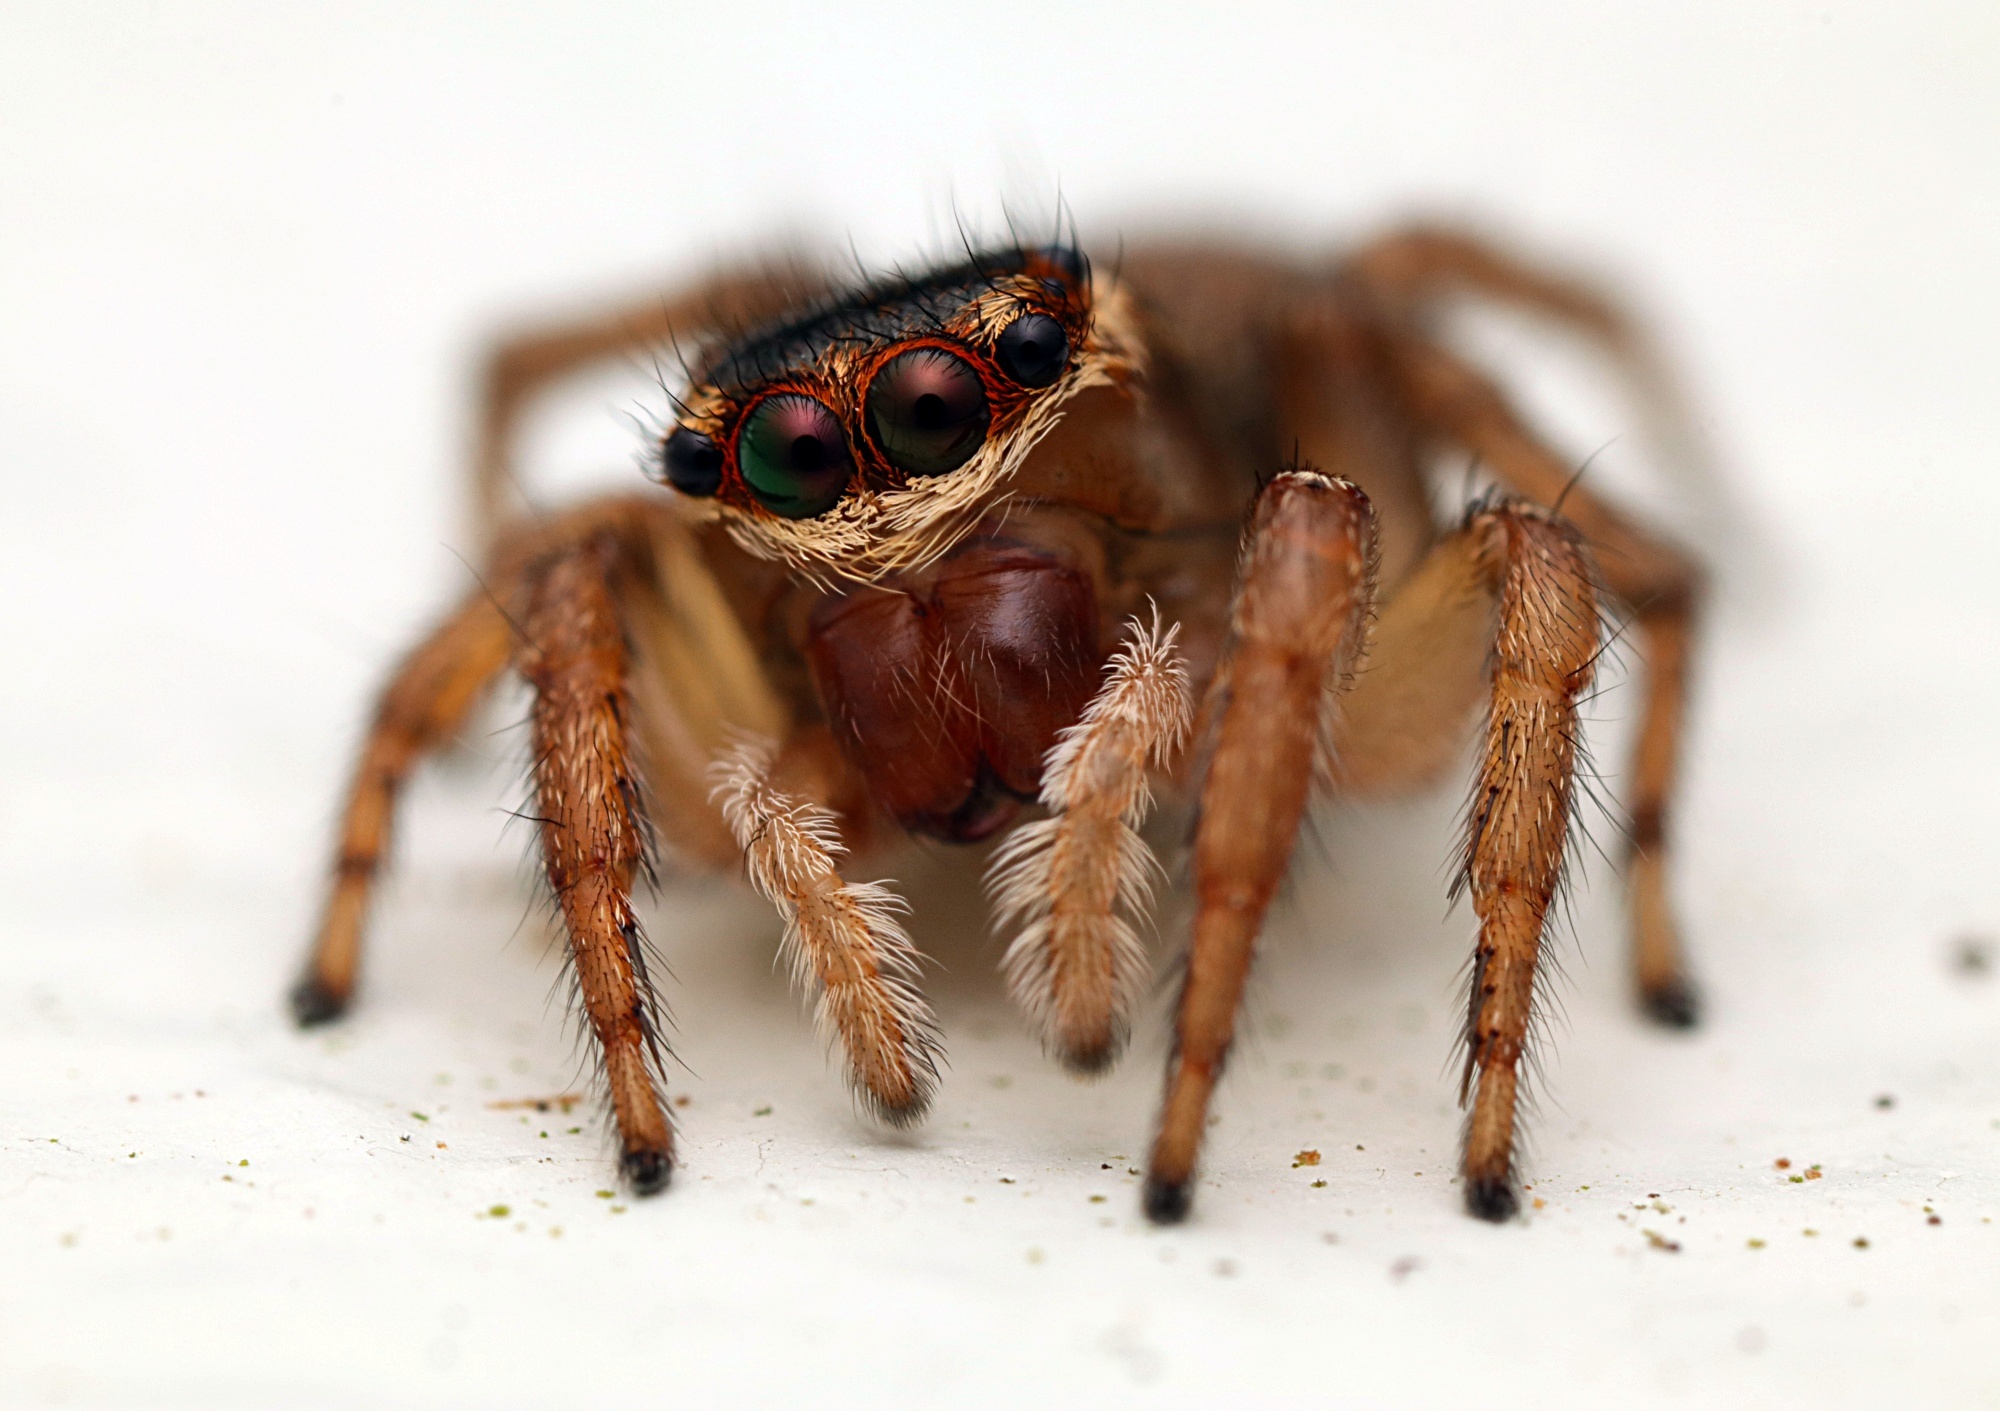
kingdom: Animalia
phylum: Arthropoda
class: Arachnida
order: Araneae
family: Salticidae
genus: Maratus
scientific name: Maratus griseus
